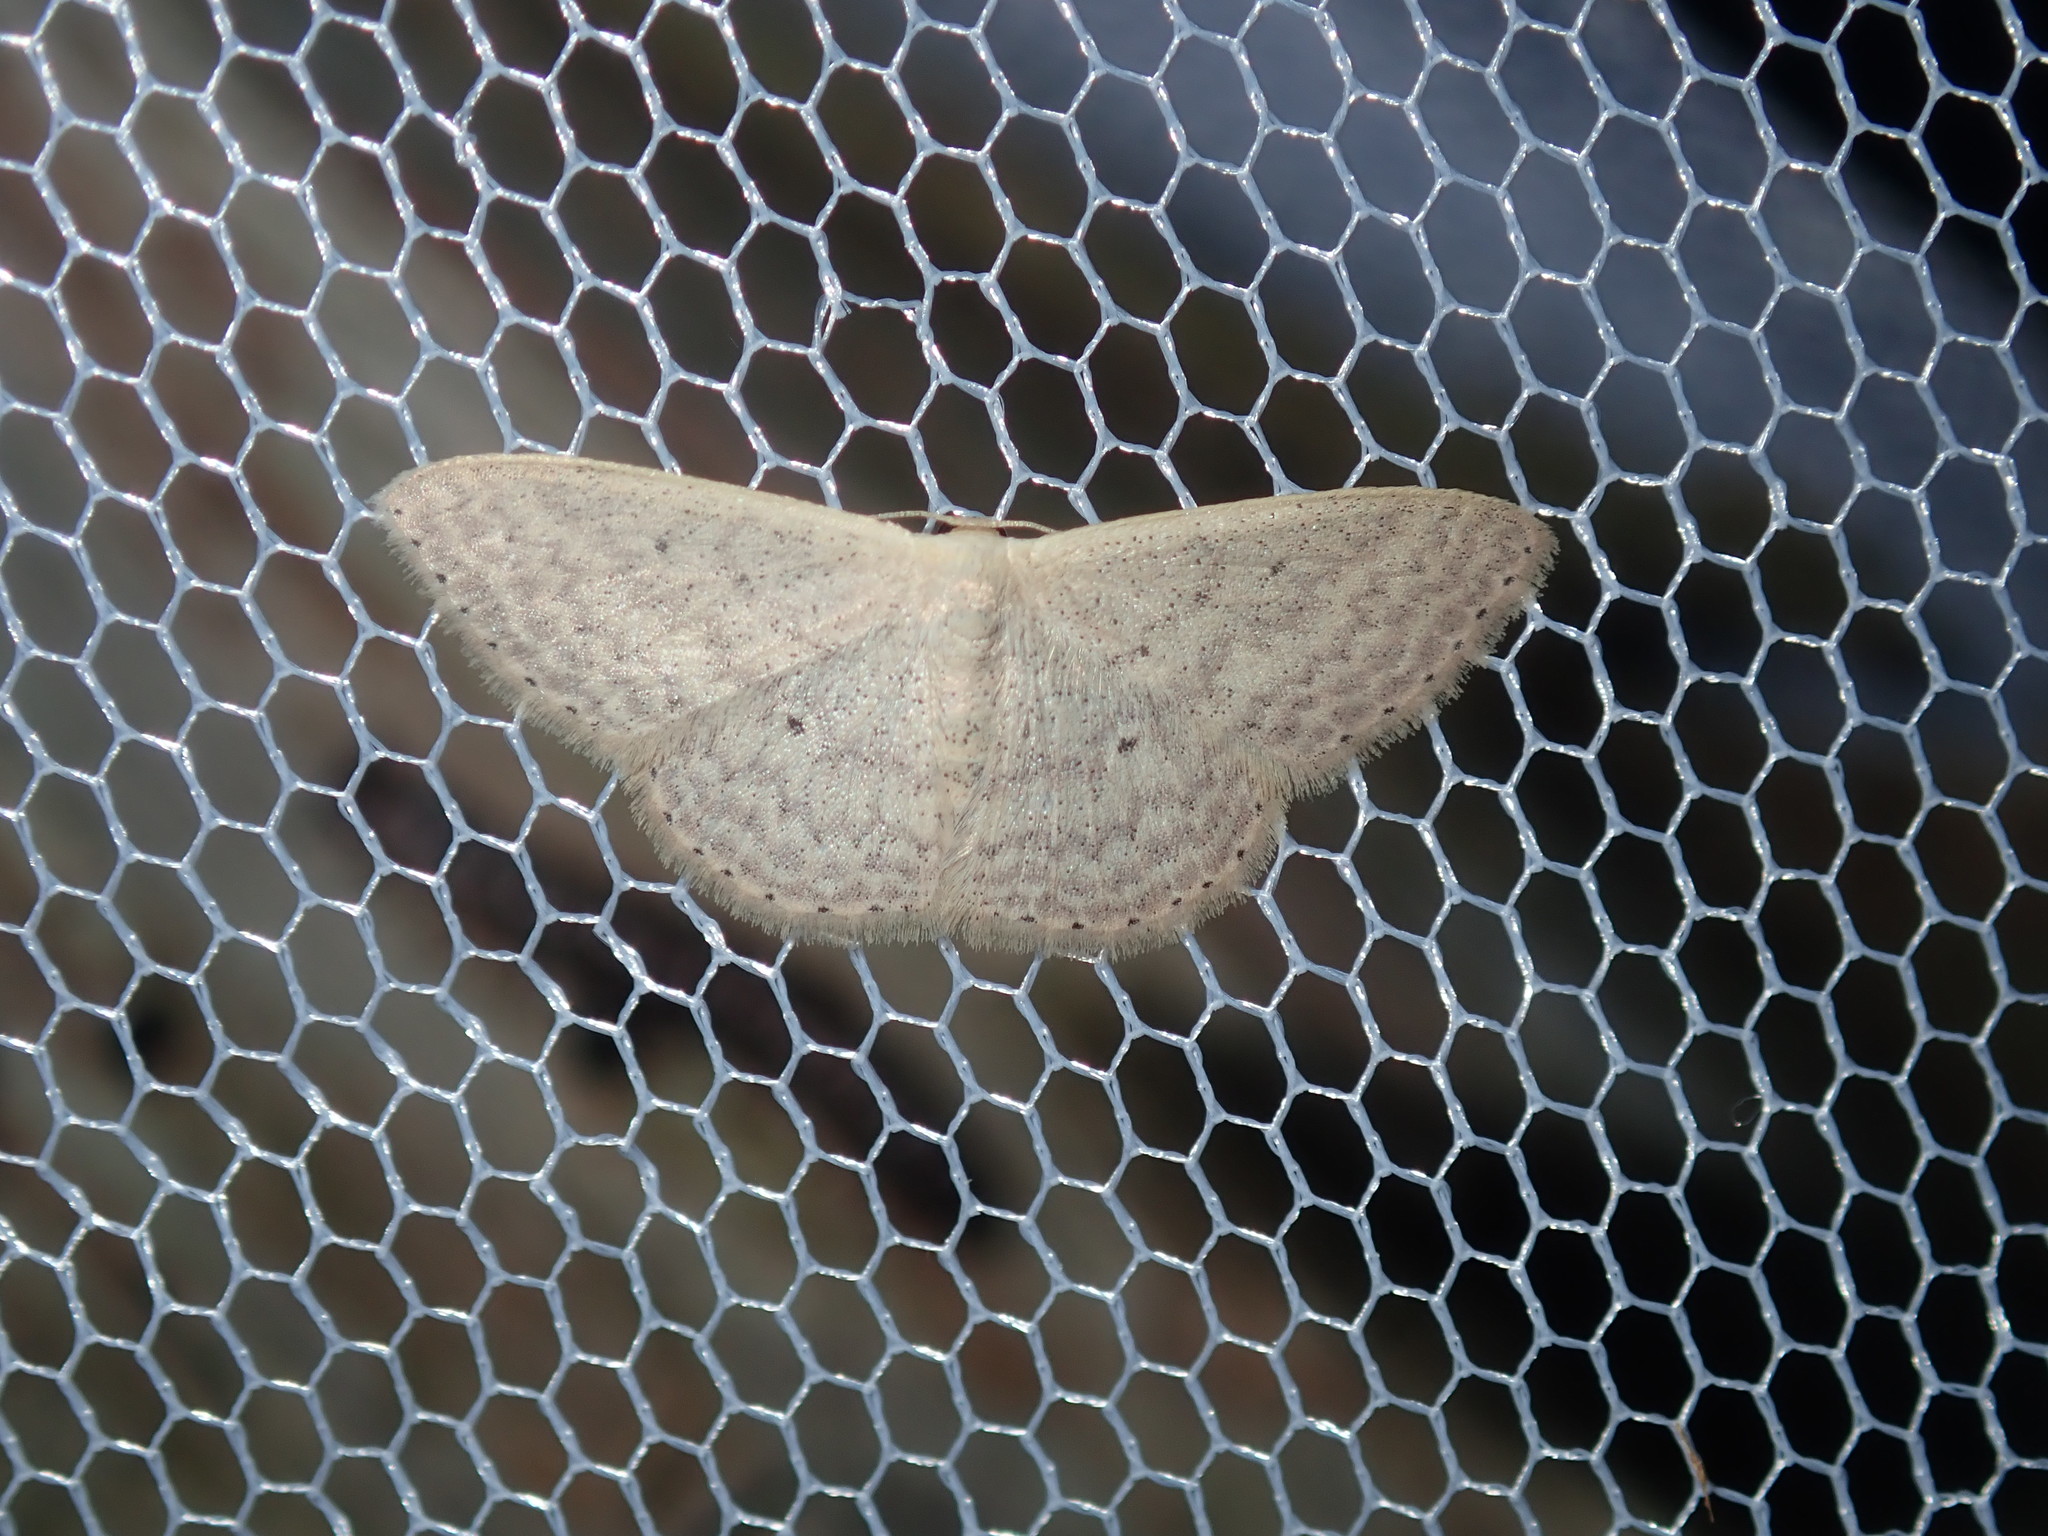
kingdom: Animalia
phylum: Arthropoda
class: Insecta
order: Lepidoptera
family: Geometridae
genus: Scopula
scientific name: Scopula optivata
